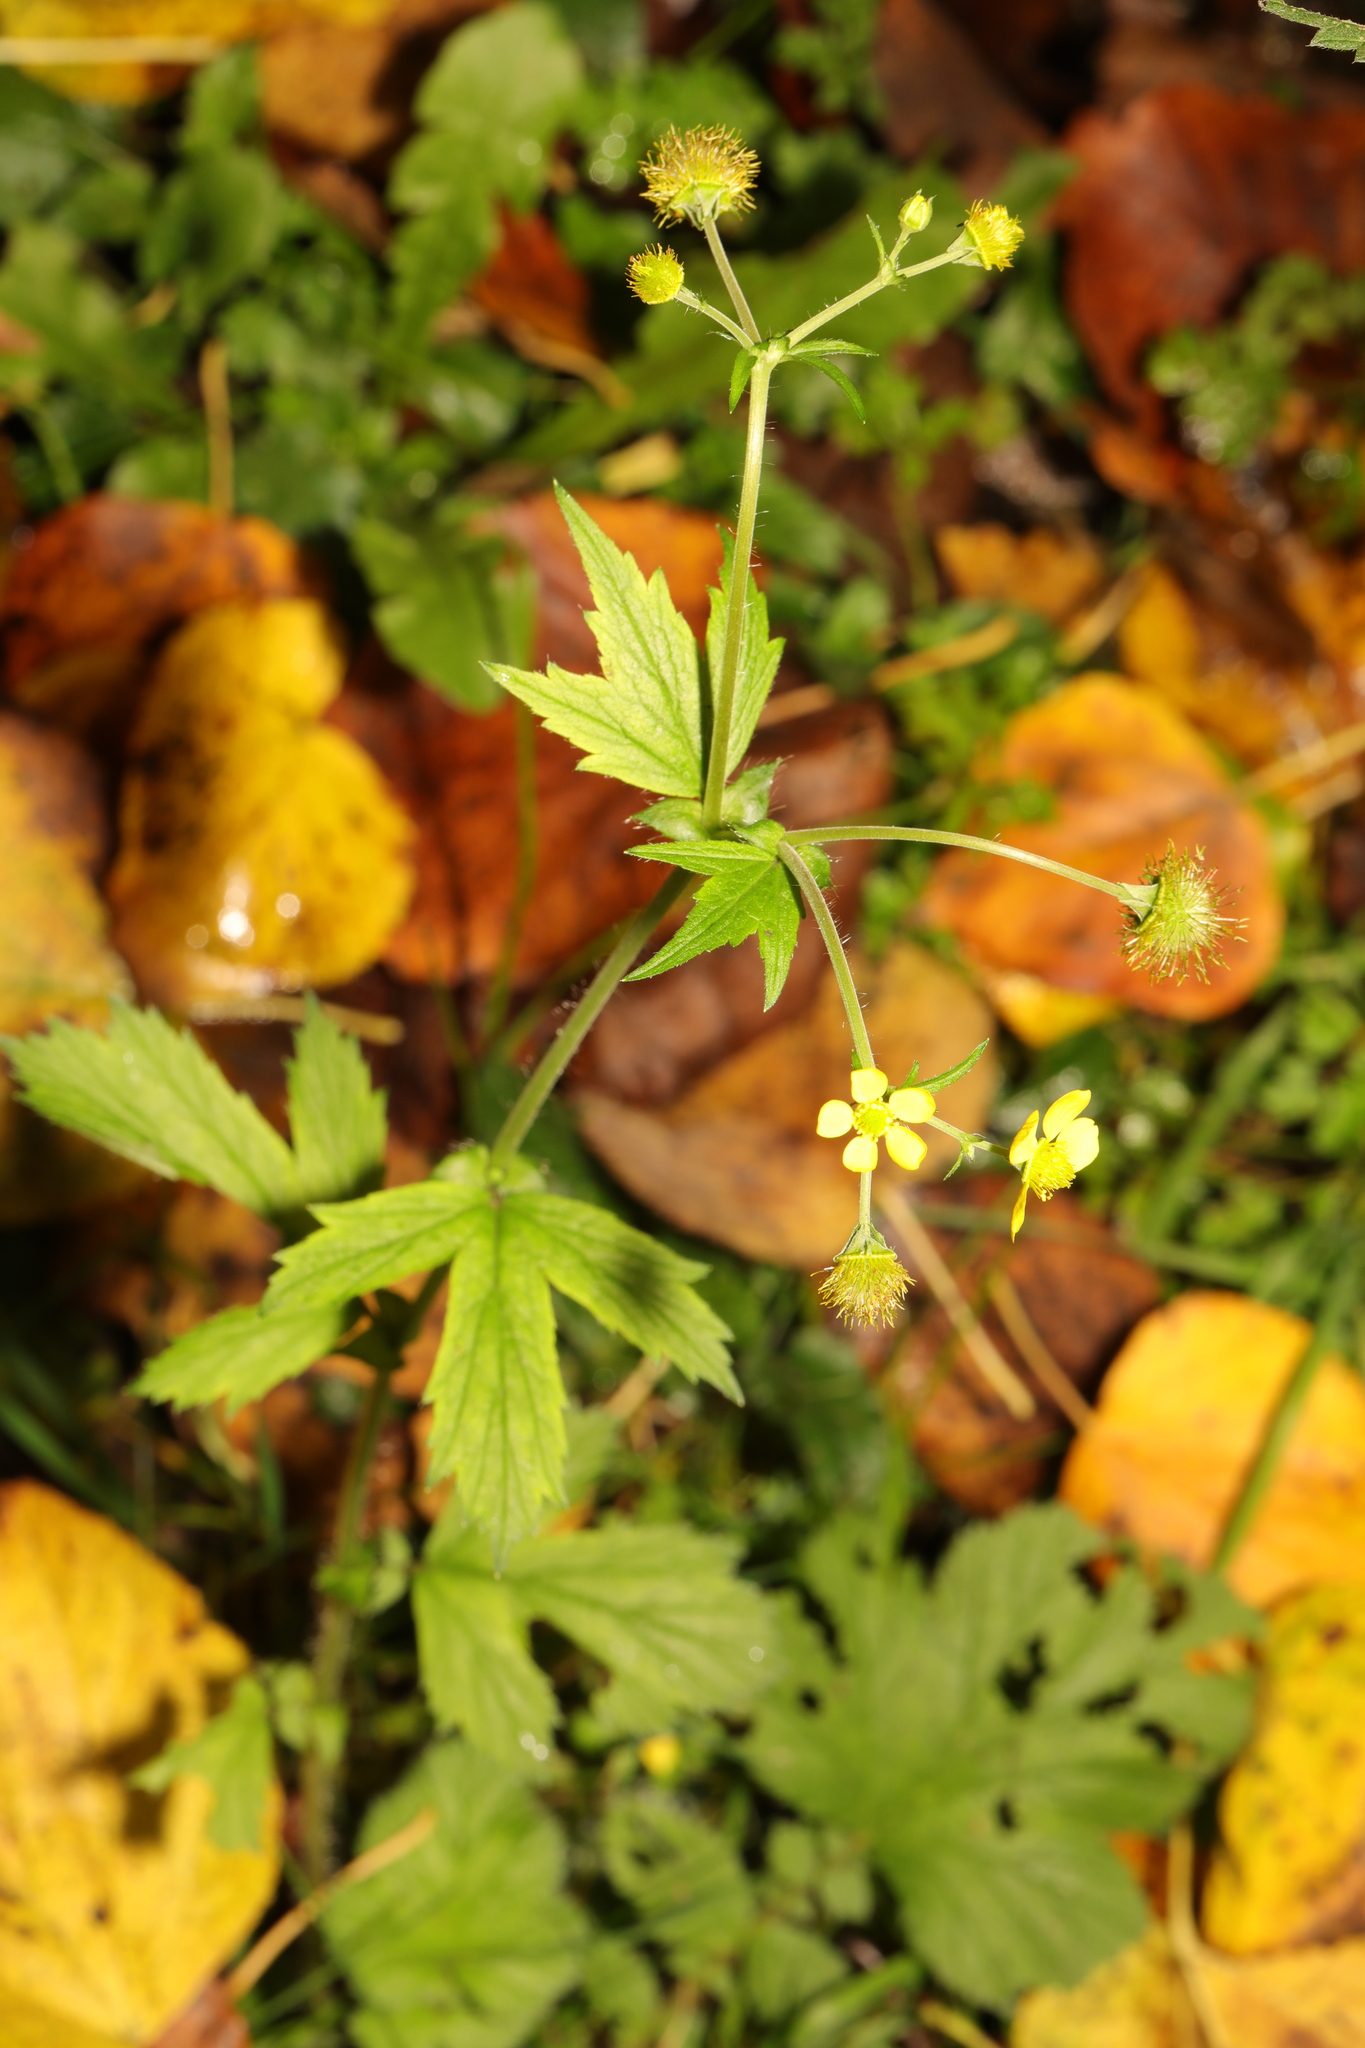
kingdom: Plantae
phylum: Tracheophyta
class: Magnoliopsida
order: Rosales
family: Rosaceae
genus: Geum
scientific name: Geum urbanum
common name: Wood avens
